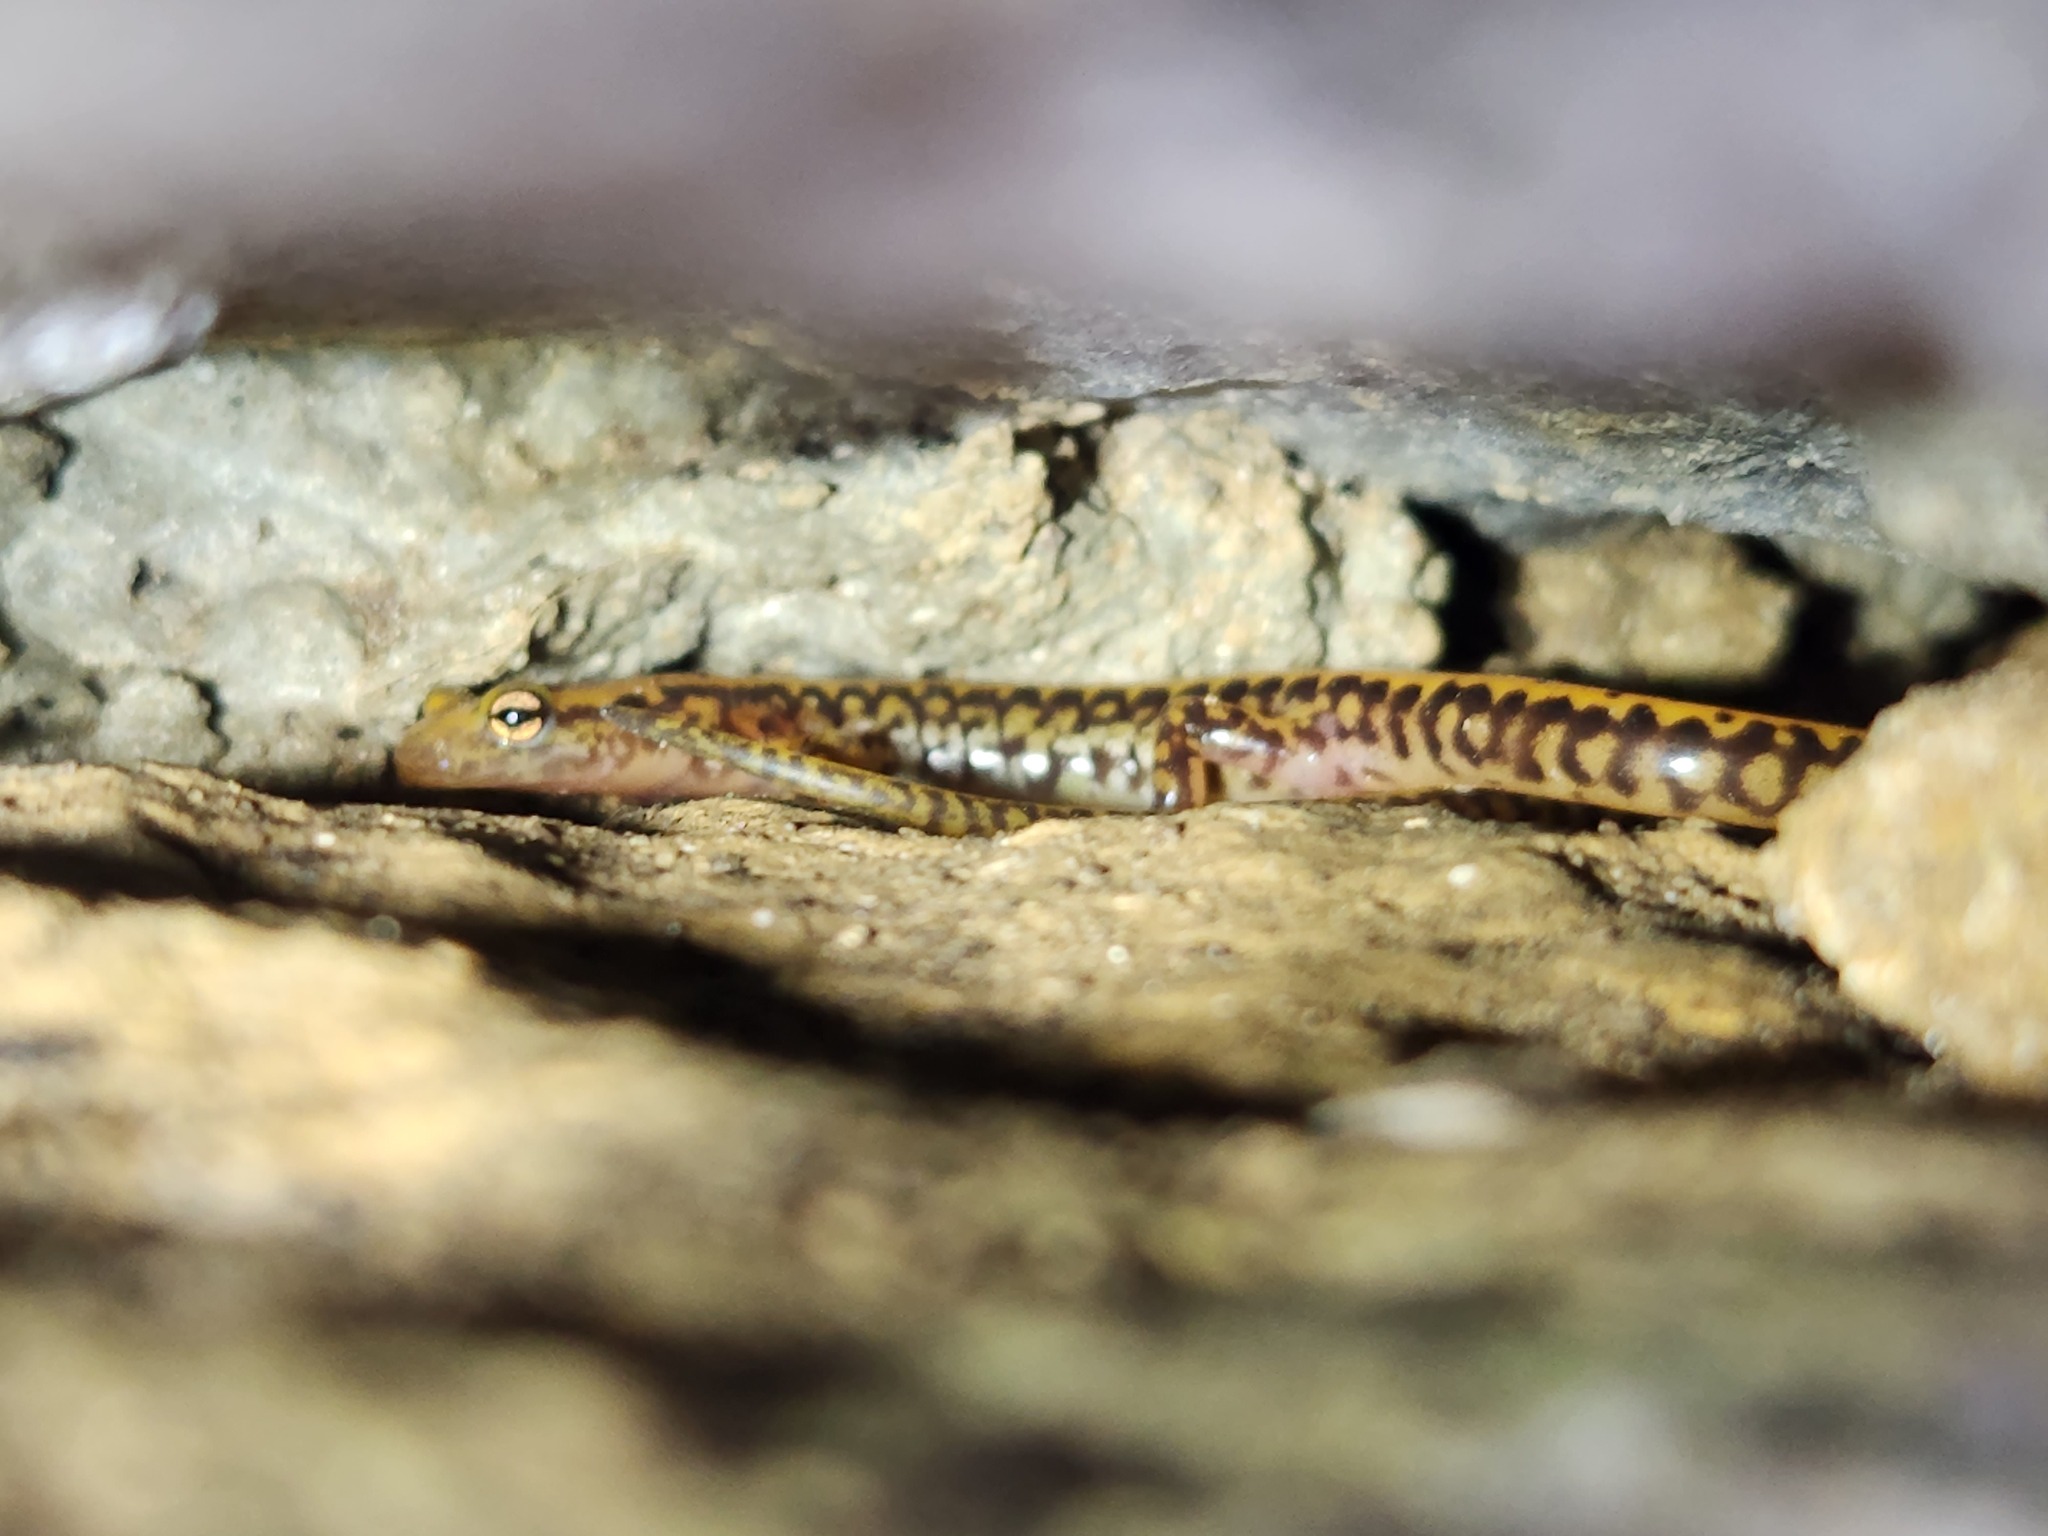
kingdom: Animalia
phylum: Chordata
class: Amphibia
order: Caudata
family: Plethodontidae
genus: Eurycea
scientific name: Eurycea longicauda
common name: Long-tailed salamander
